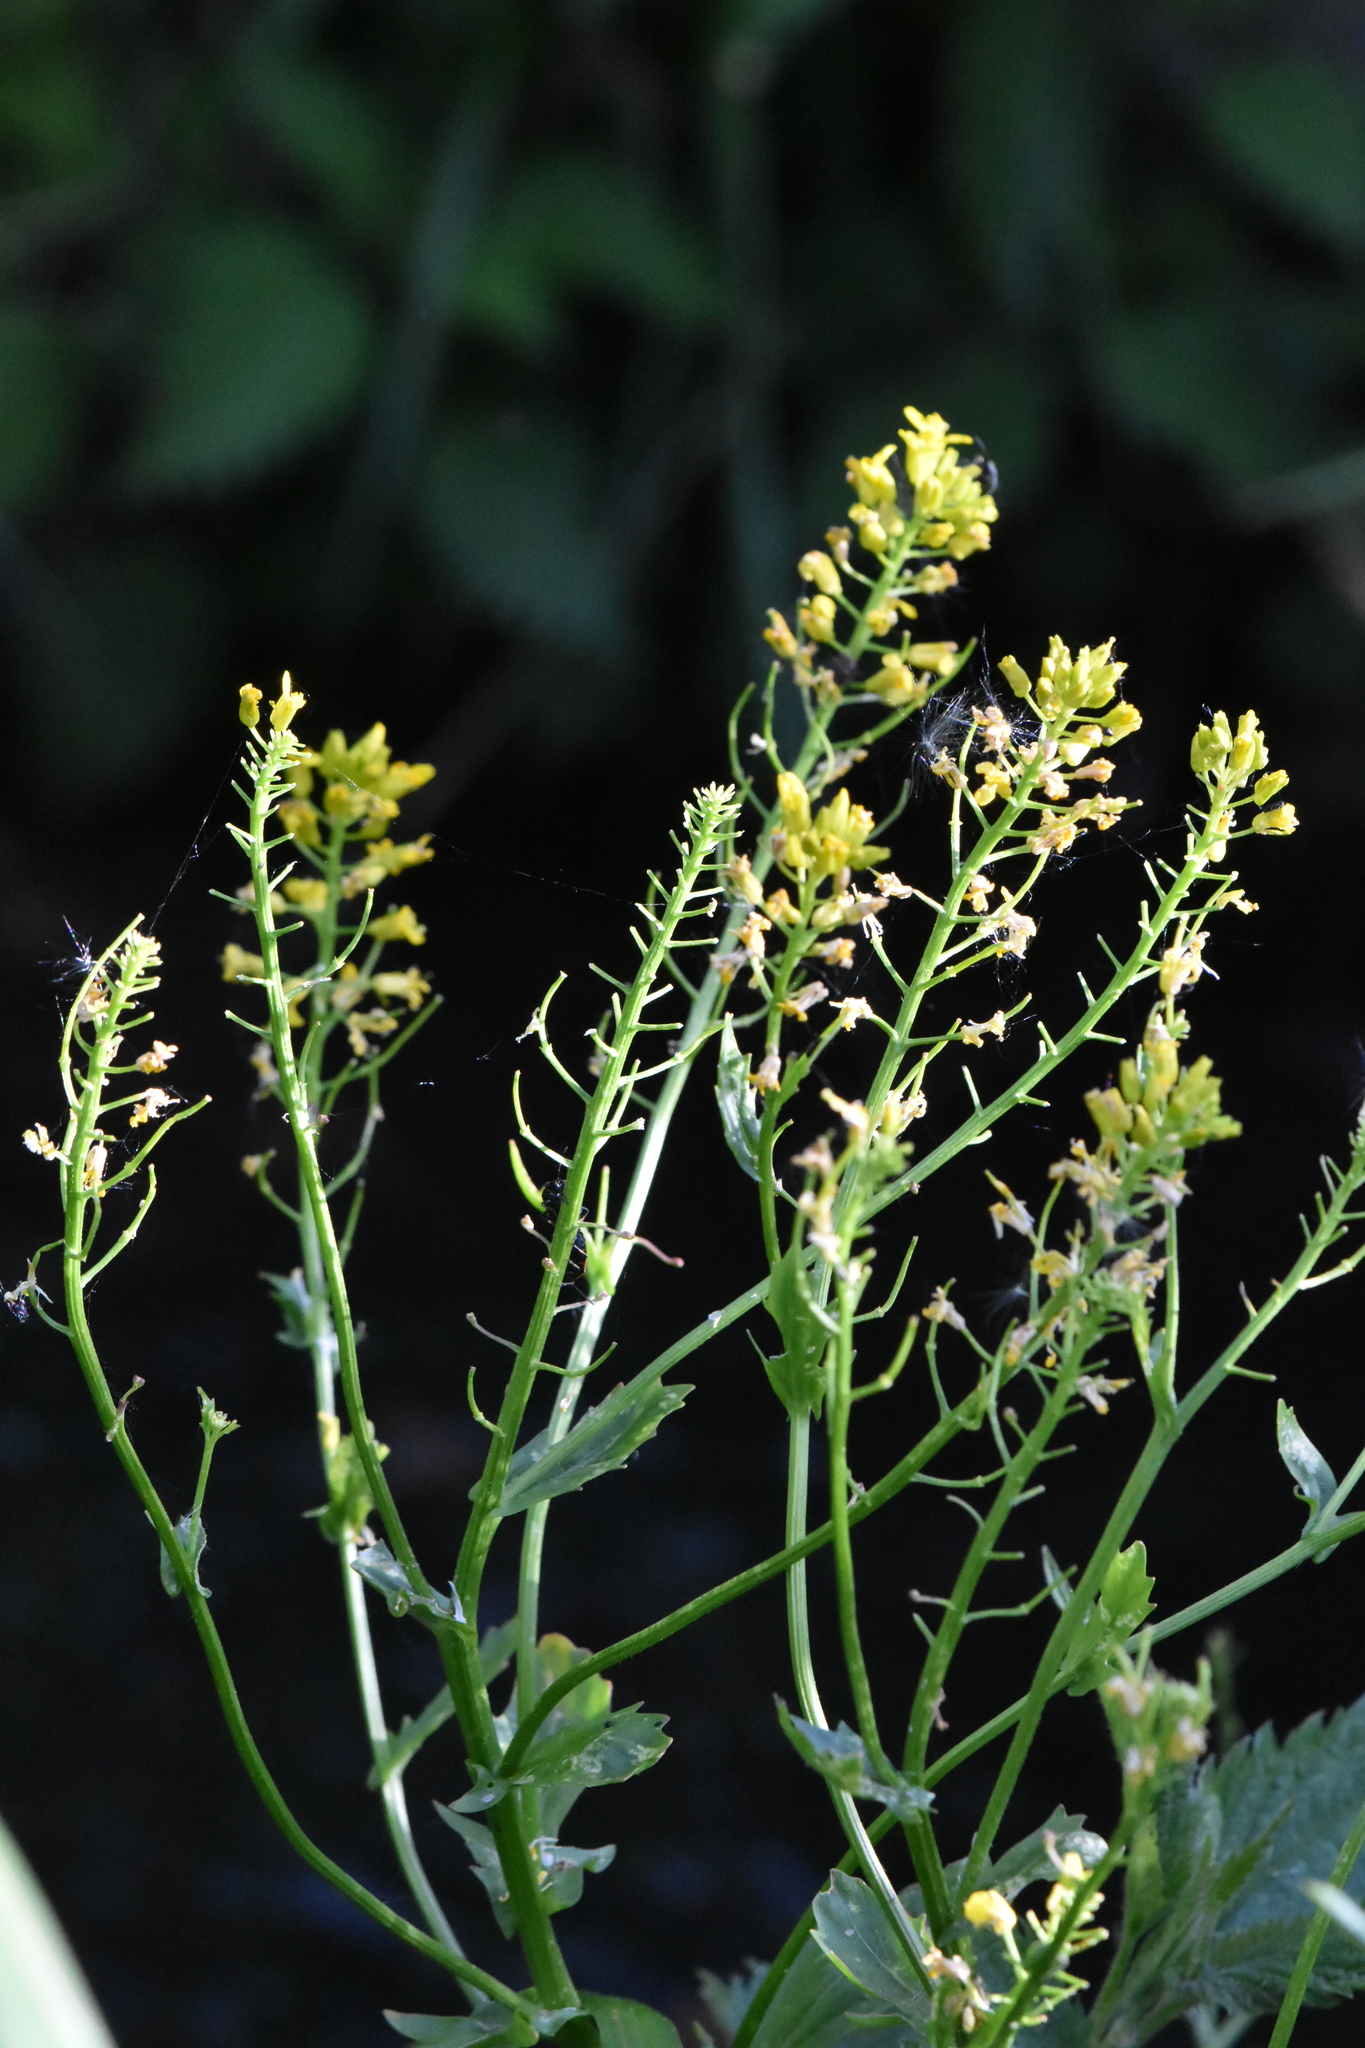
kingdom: Plantae
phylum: Tracheophyta
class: Magnoliopsida
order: Brassicales
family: Brassicaceae
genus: Barbarea
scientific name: Barbarea vulgaris
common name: Cressy-greens
